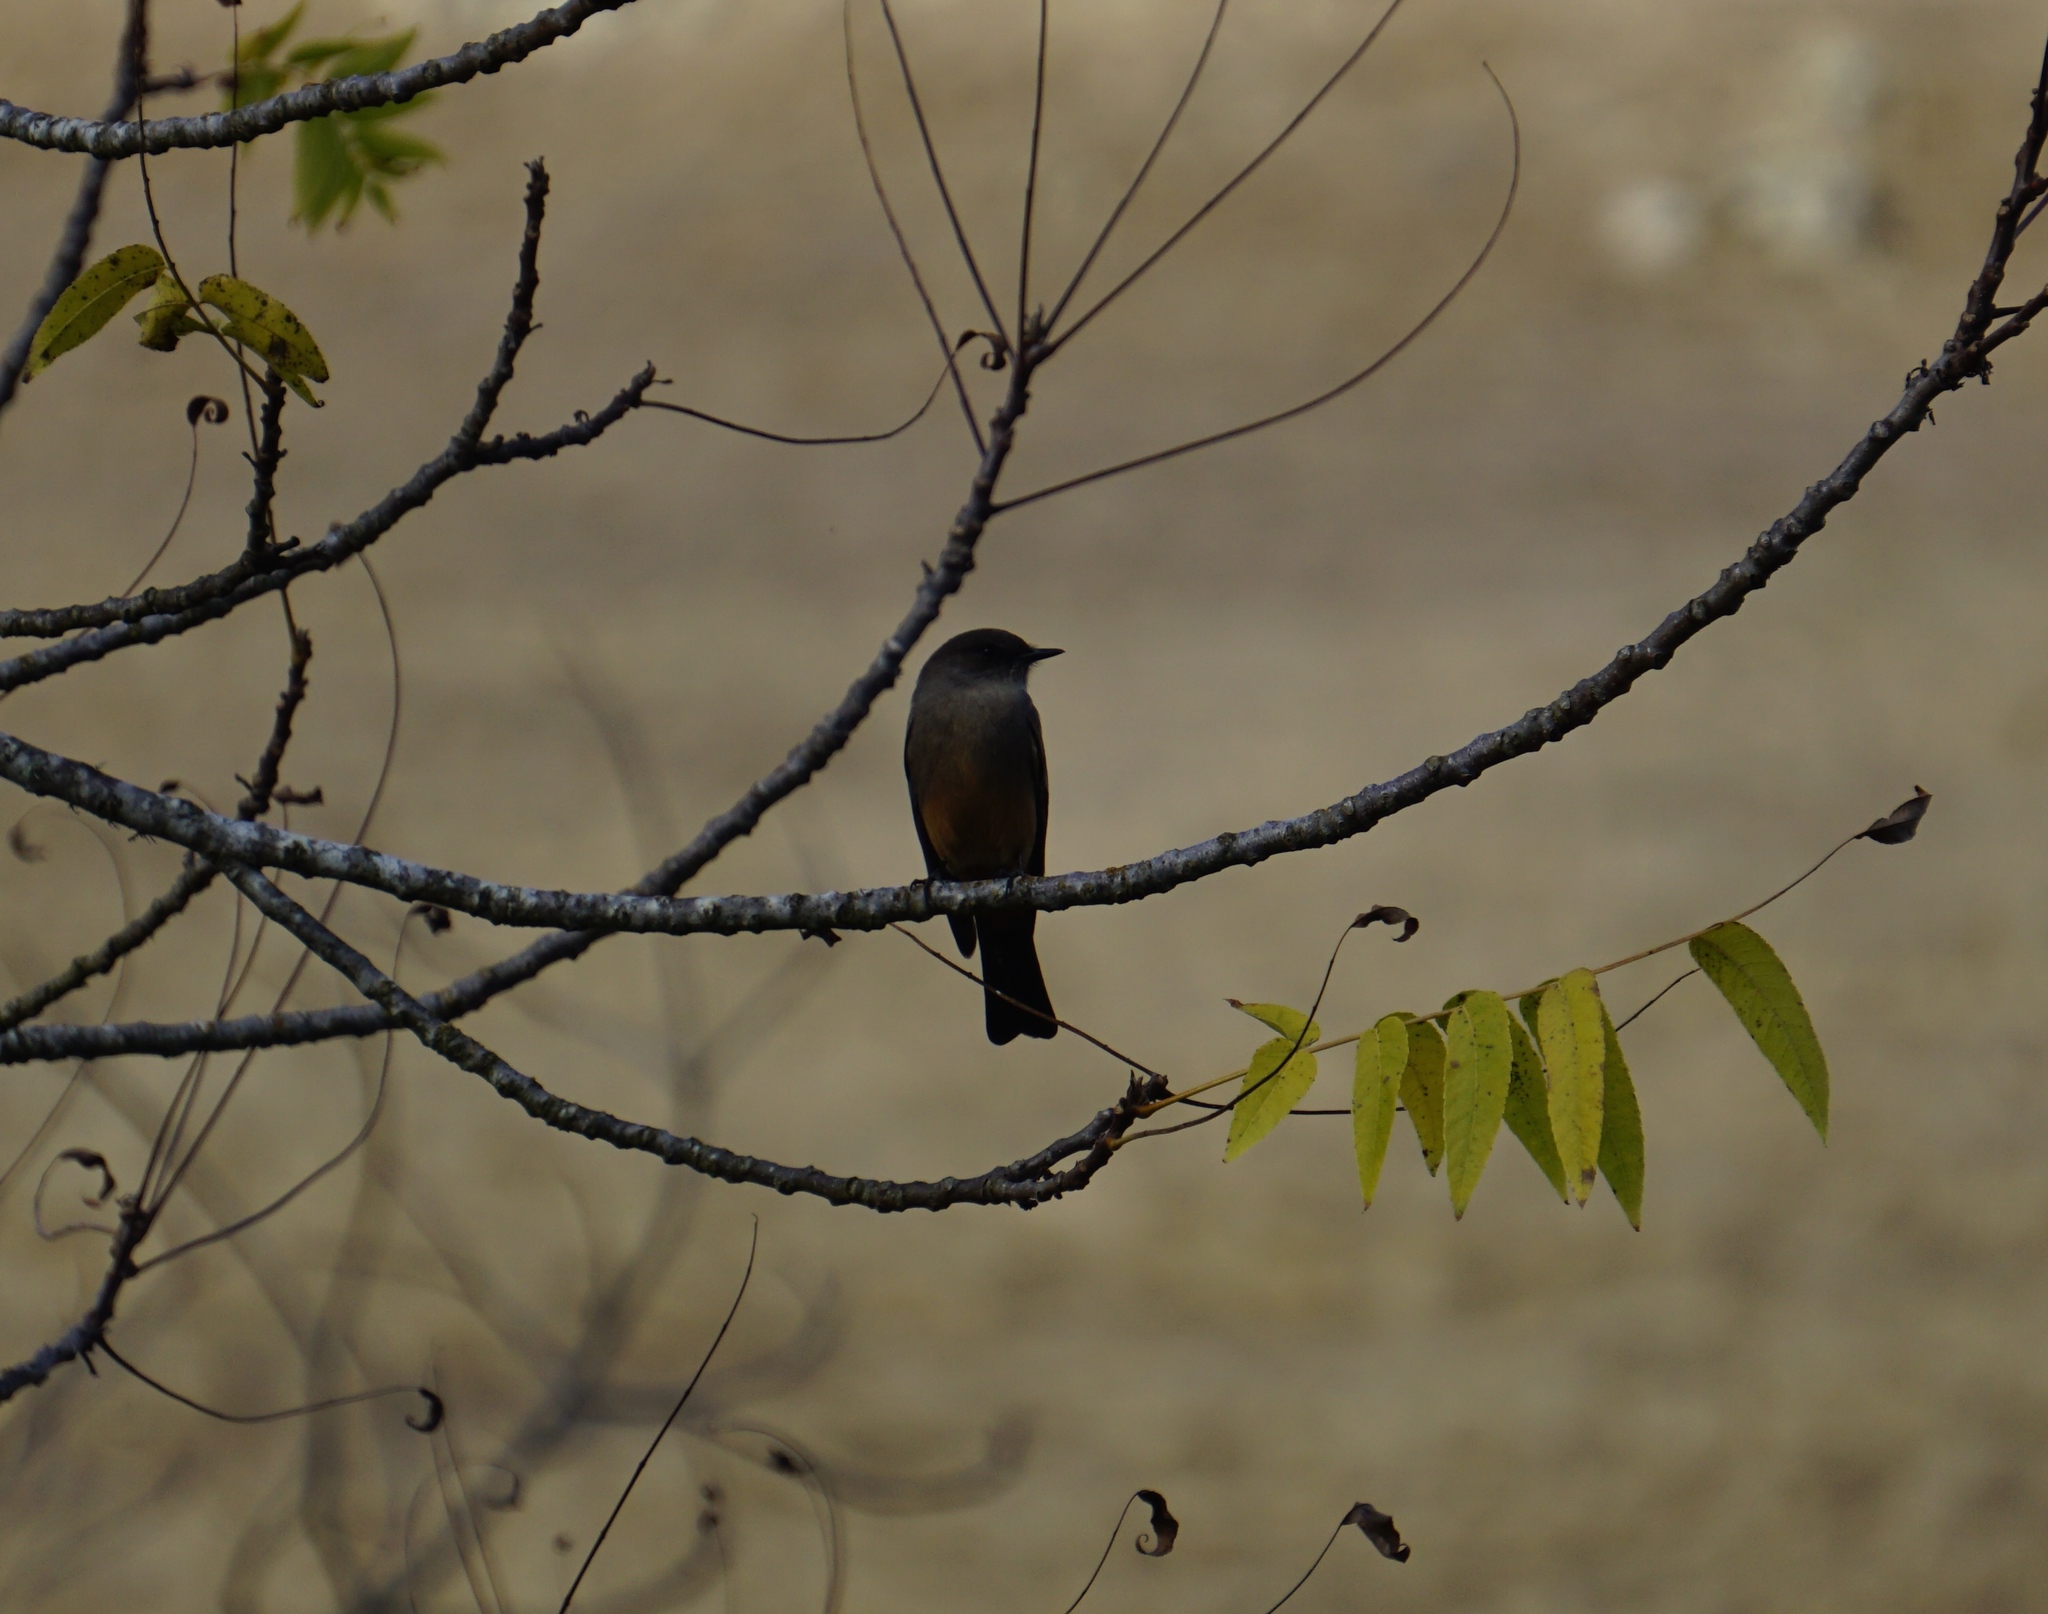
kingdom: Animalia
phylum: Chordata
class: Aves
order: Passeriformes
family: Tyrannidae
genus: Sayornis
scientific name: Sayornis saya
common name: Say's phoebe
